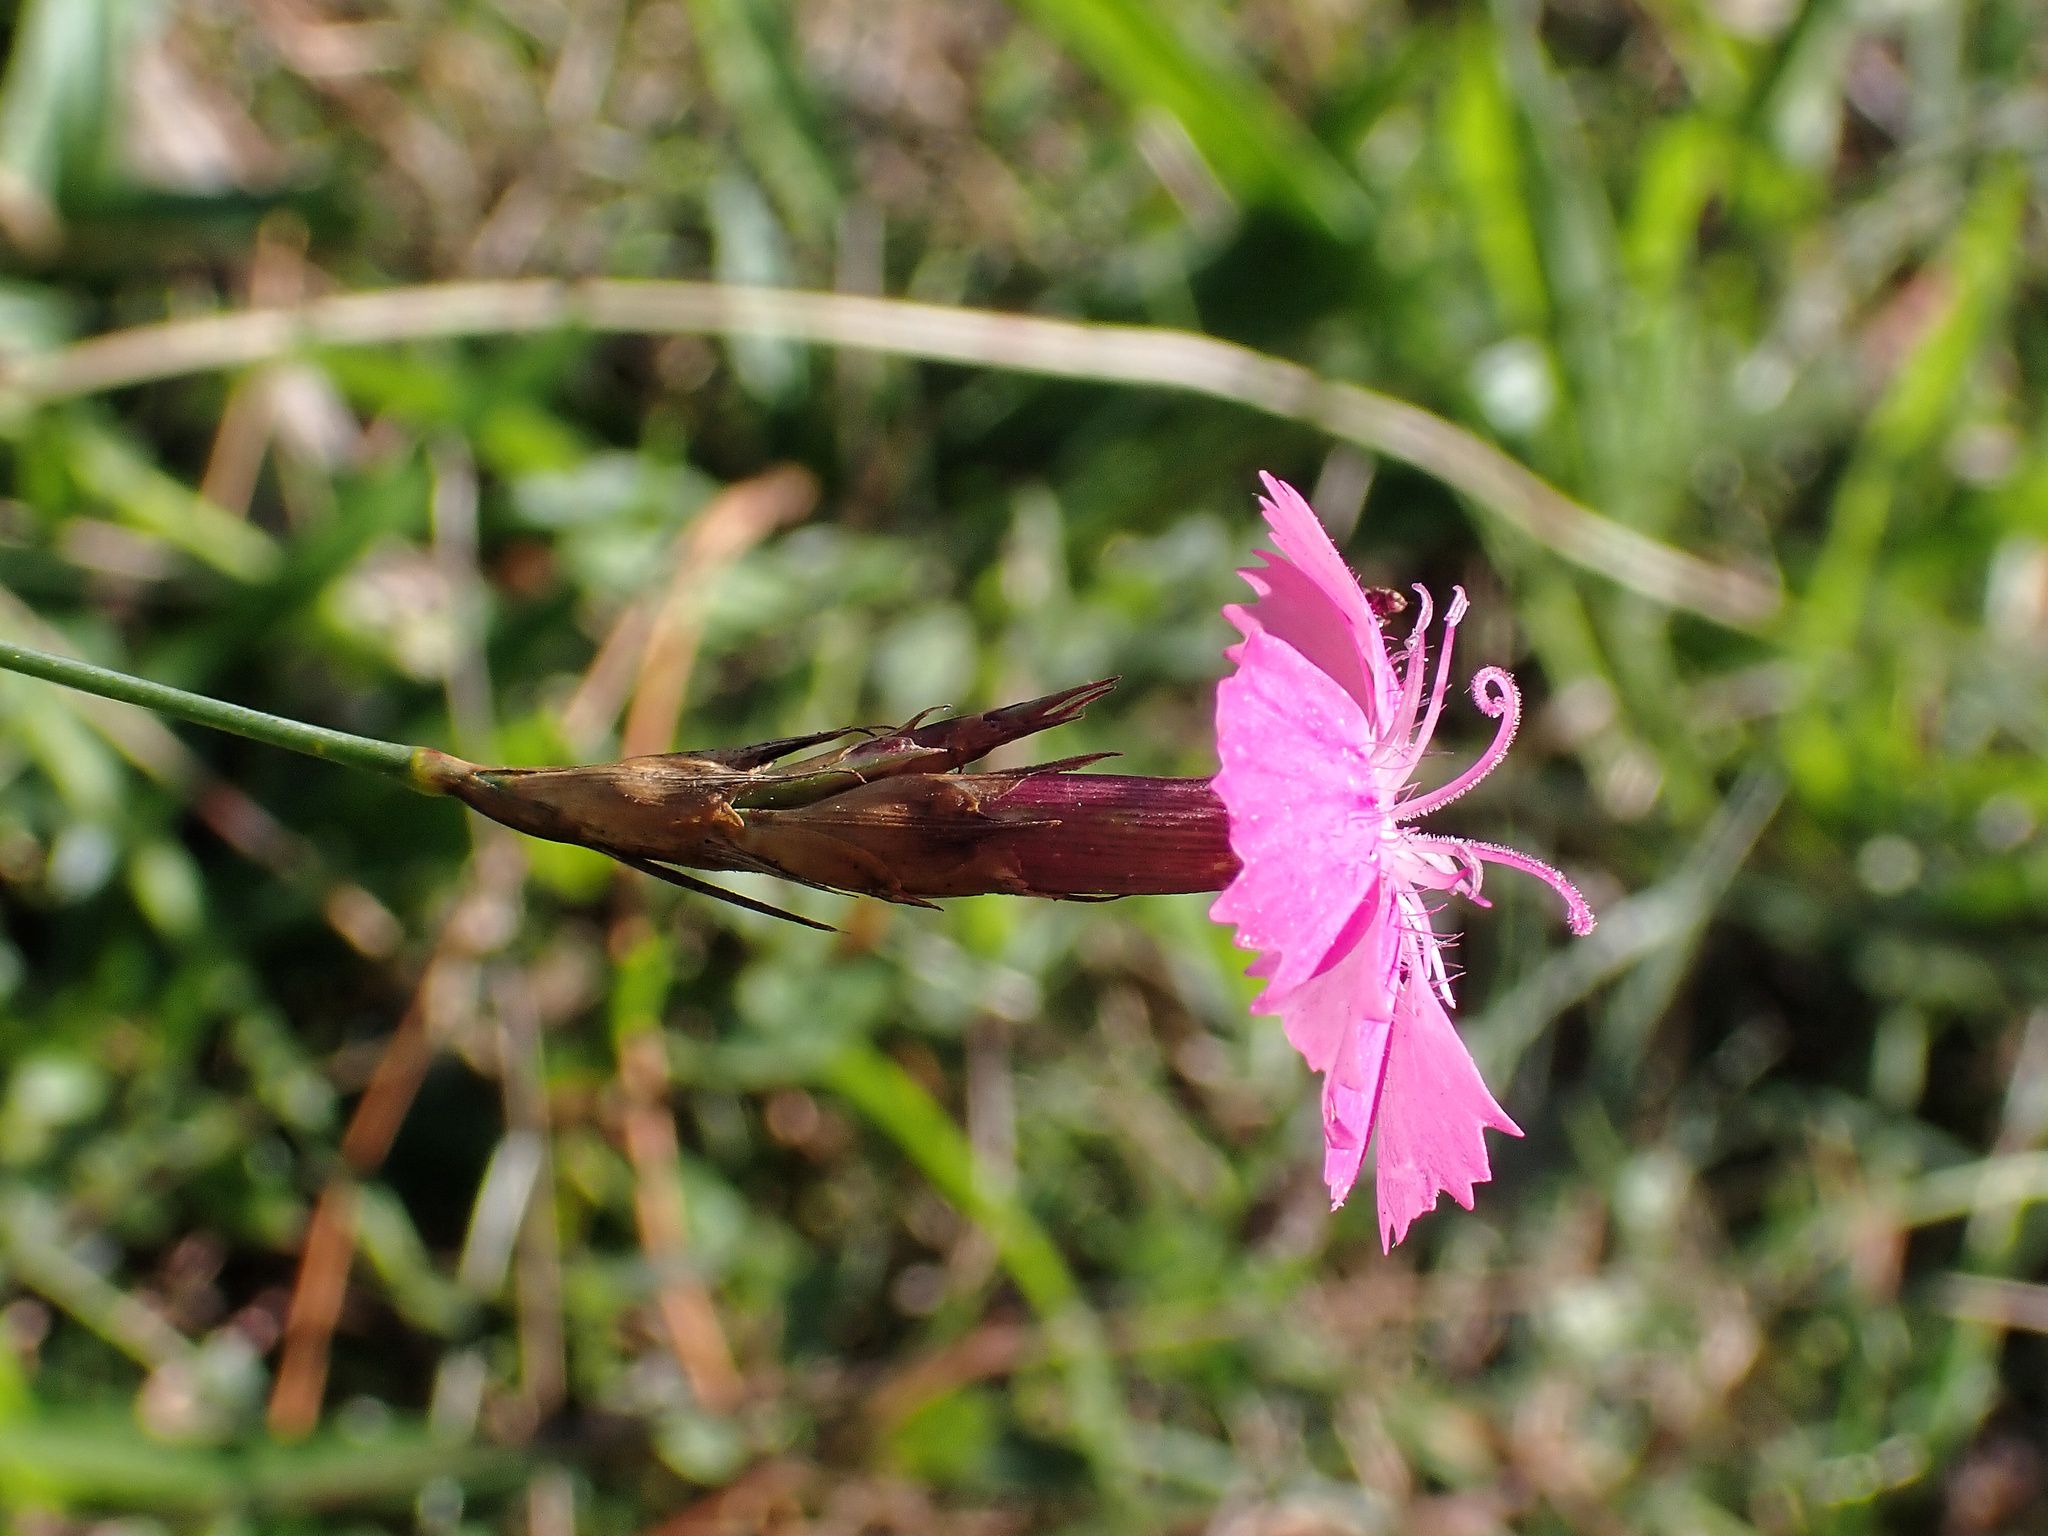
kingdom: Plantae
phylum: Tracheophyta
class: Magnoliopsida
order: Caryophyllales
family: Caryophyllaceae
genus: Dianthus
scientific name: Dianthus carthusianorum
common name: Carthusian pink
